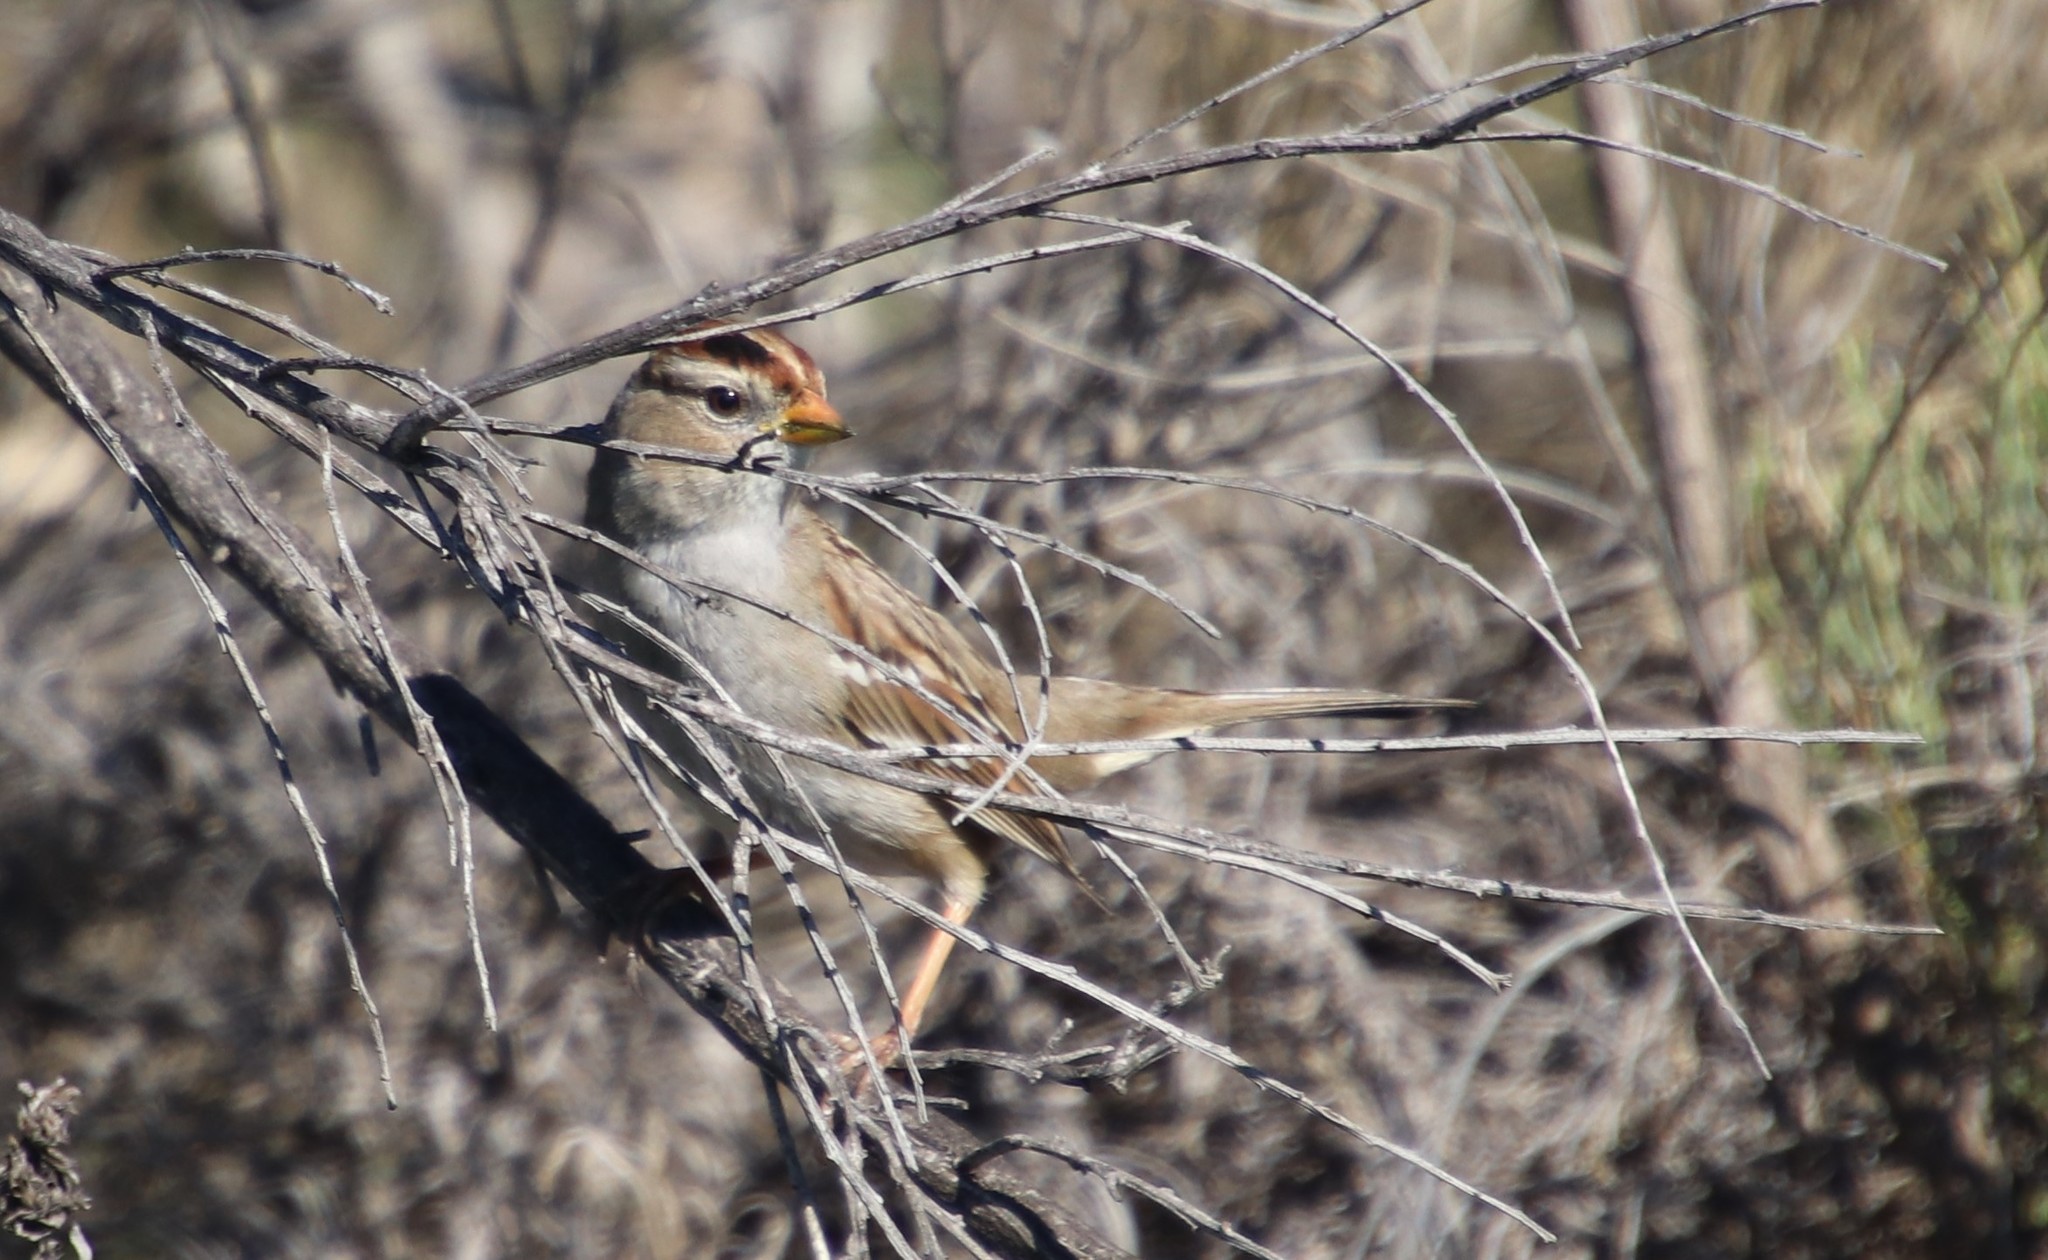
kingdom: Animalia
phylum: Chordata
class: Aves
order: Passeriformes
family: Passerellidae
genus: Zonotrichia
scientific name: Zonotrichia leucophrys
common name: White-crowned sparrow
